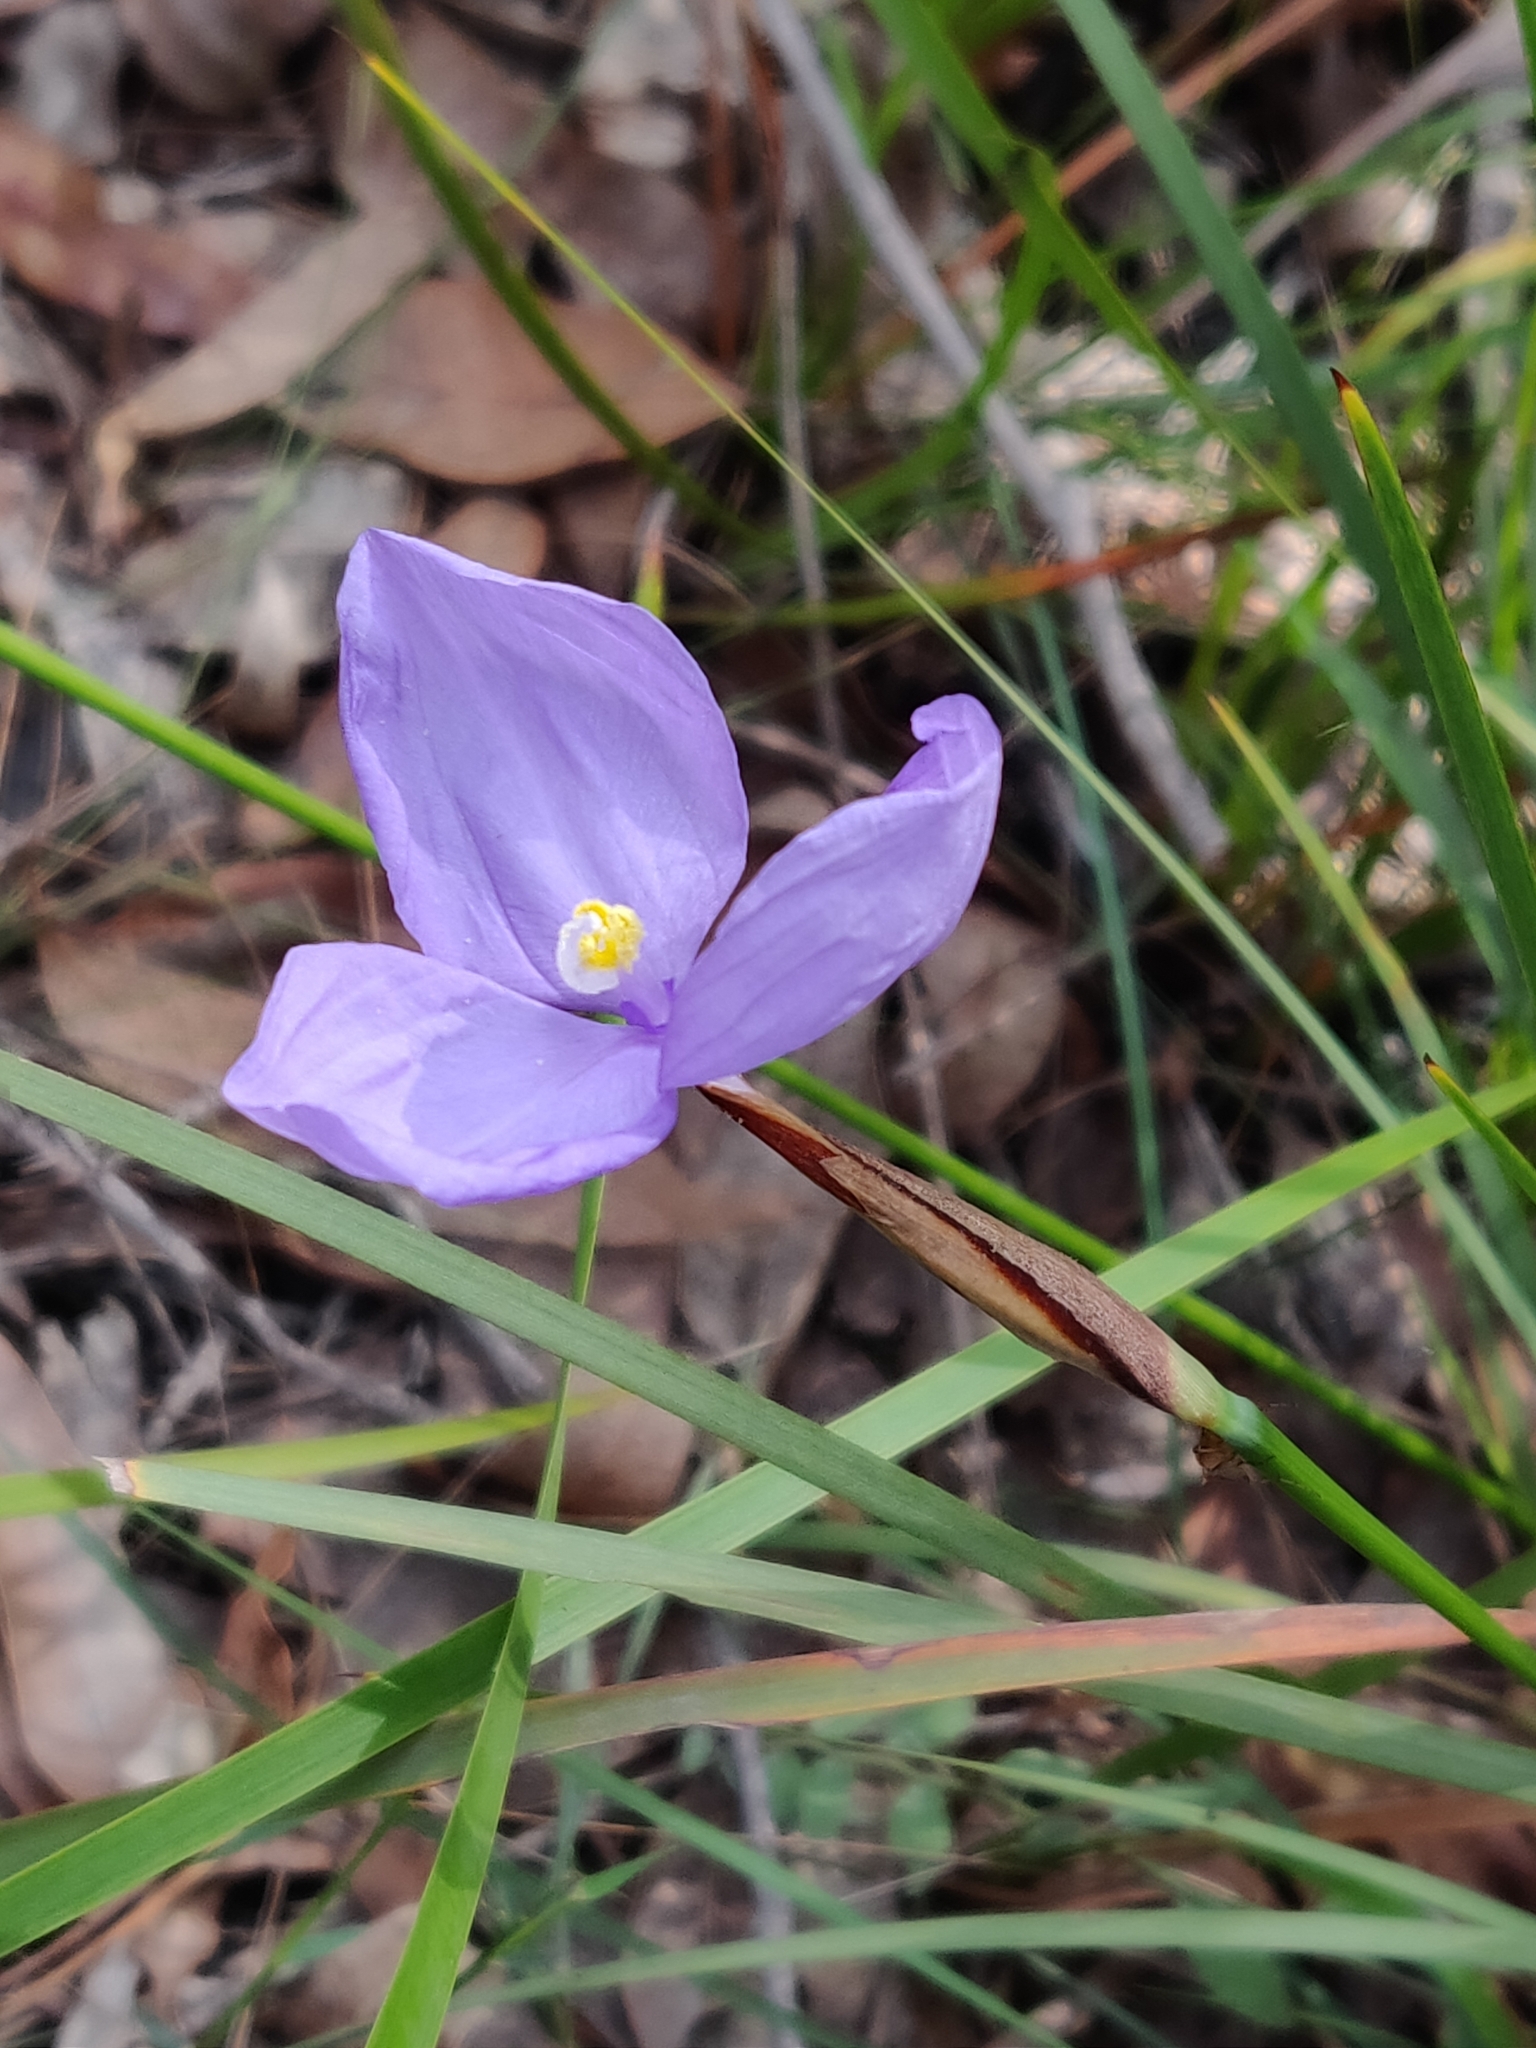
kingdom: Plantae
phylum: Tracheophyta
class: Liliopsida
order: Asparagales
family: Iridaceae
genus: Patersonia
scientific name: Patersonia glabrata
